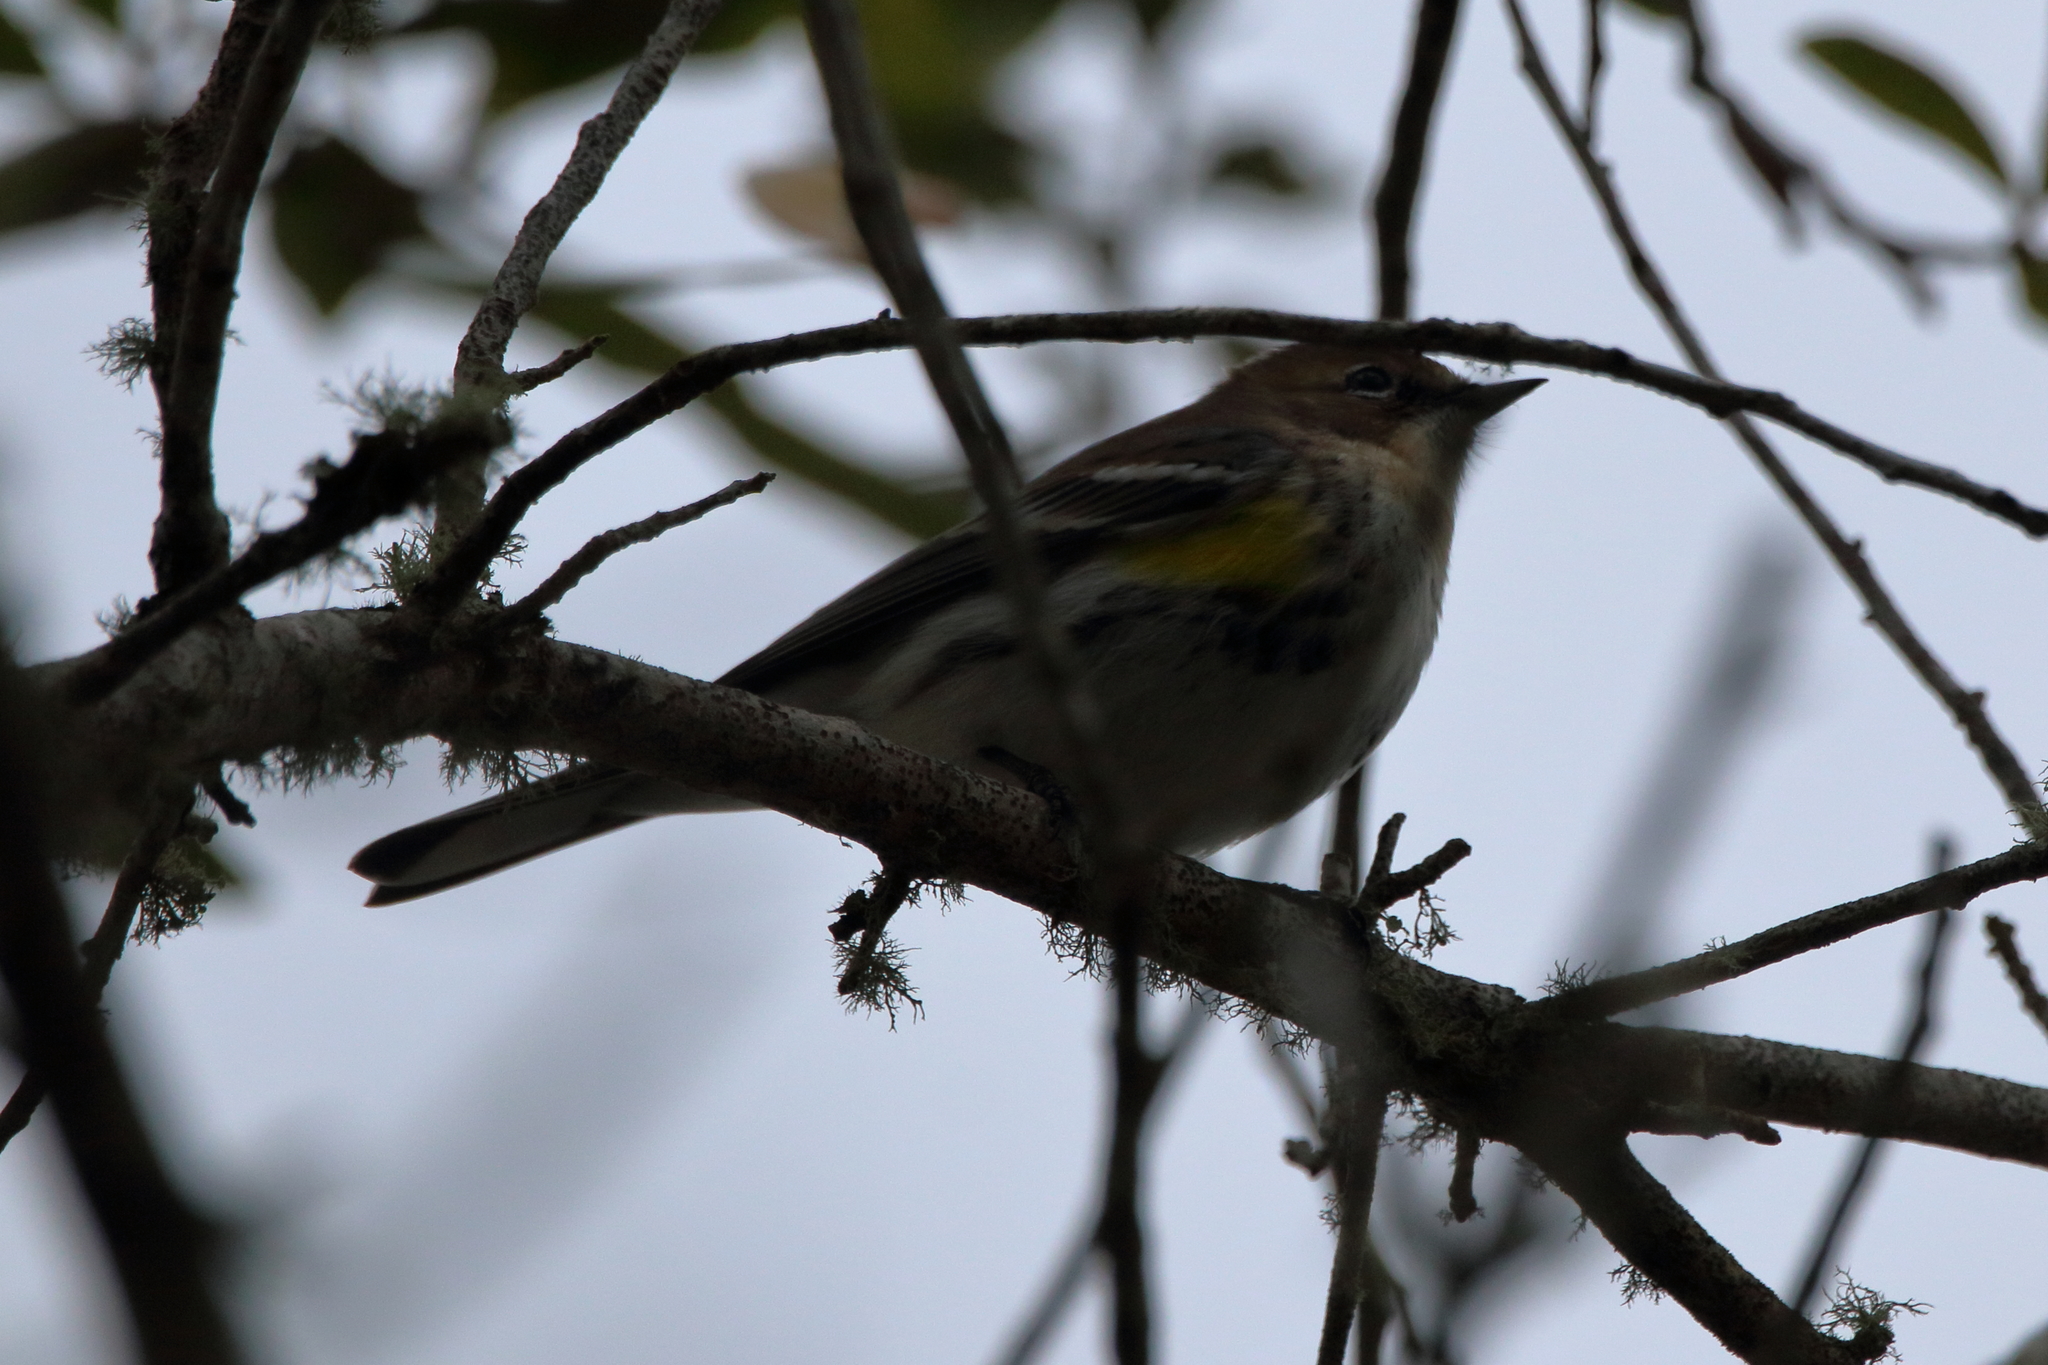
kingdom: Animalia
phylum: Chordata
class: Aves
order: Passeriformes
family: Parulidae
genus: Setophaga
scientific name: Setophaga coronata
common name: Myrtle warbler
